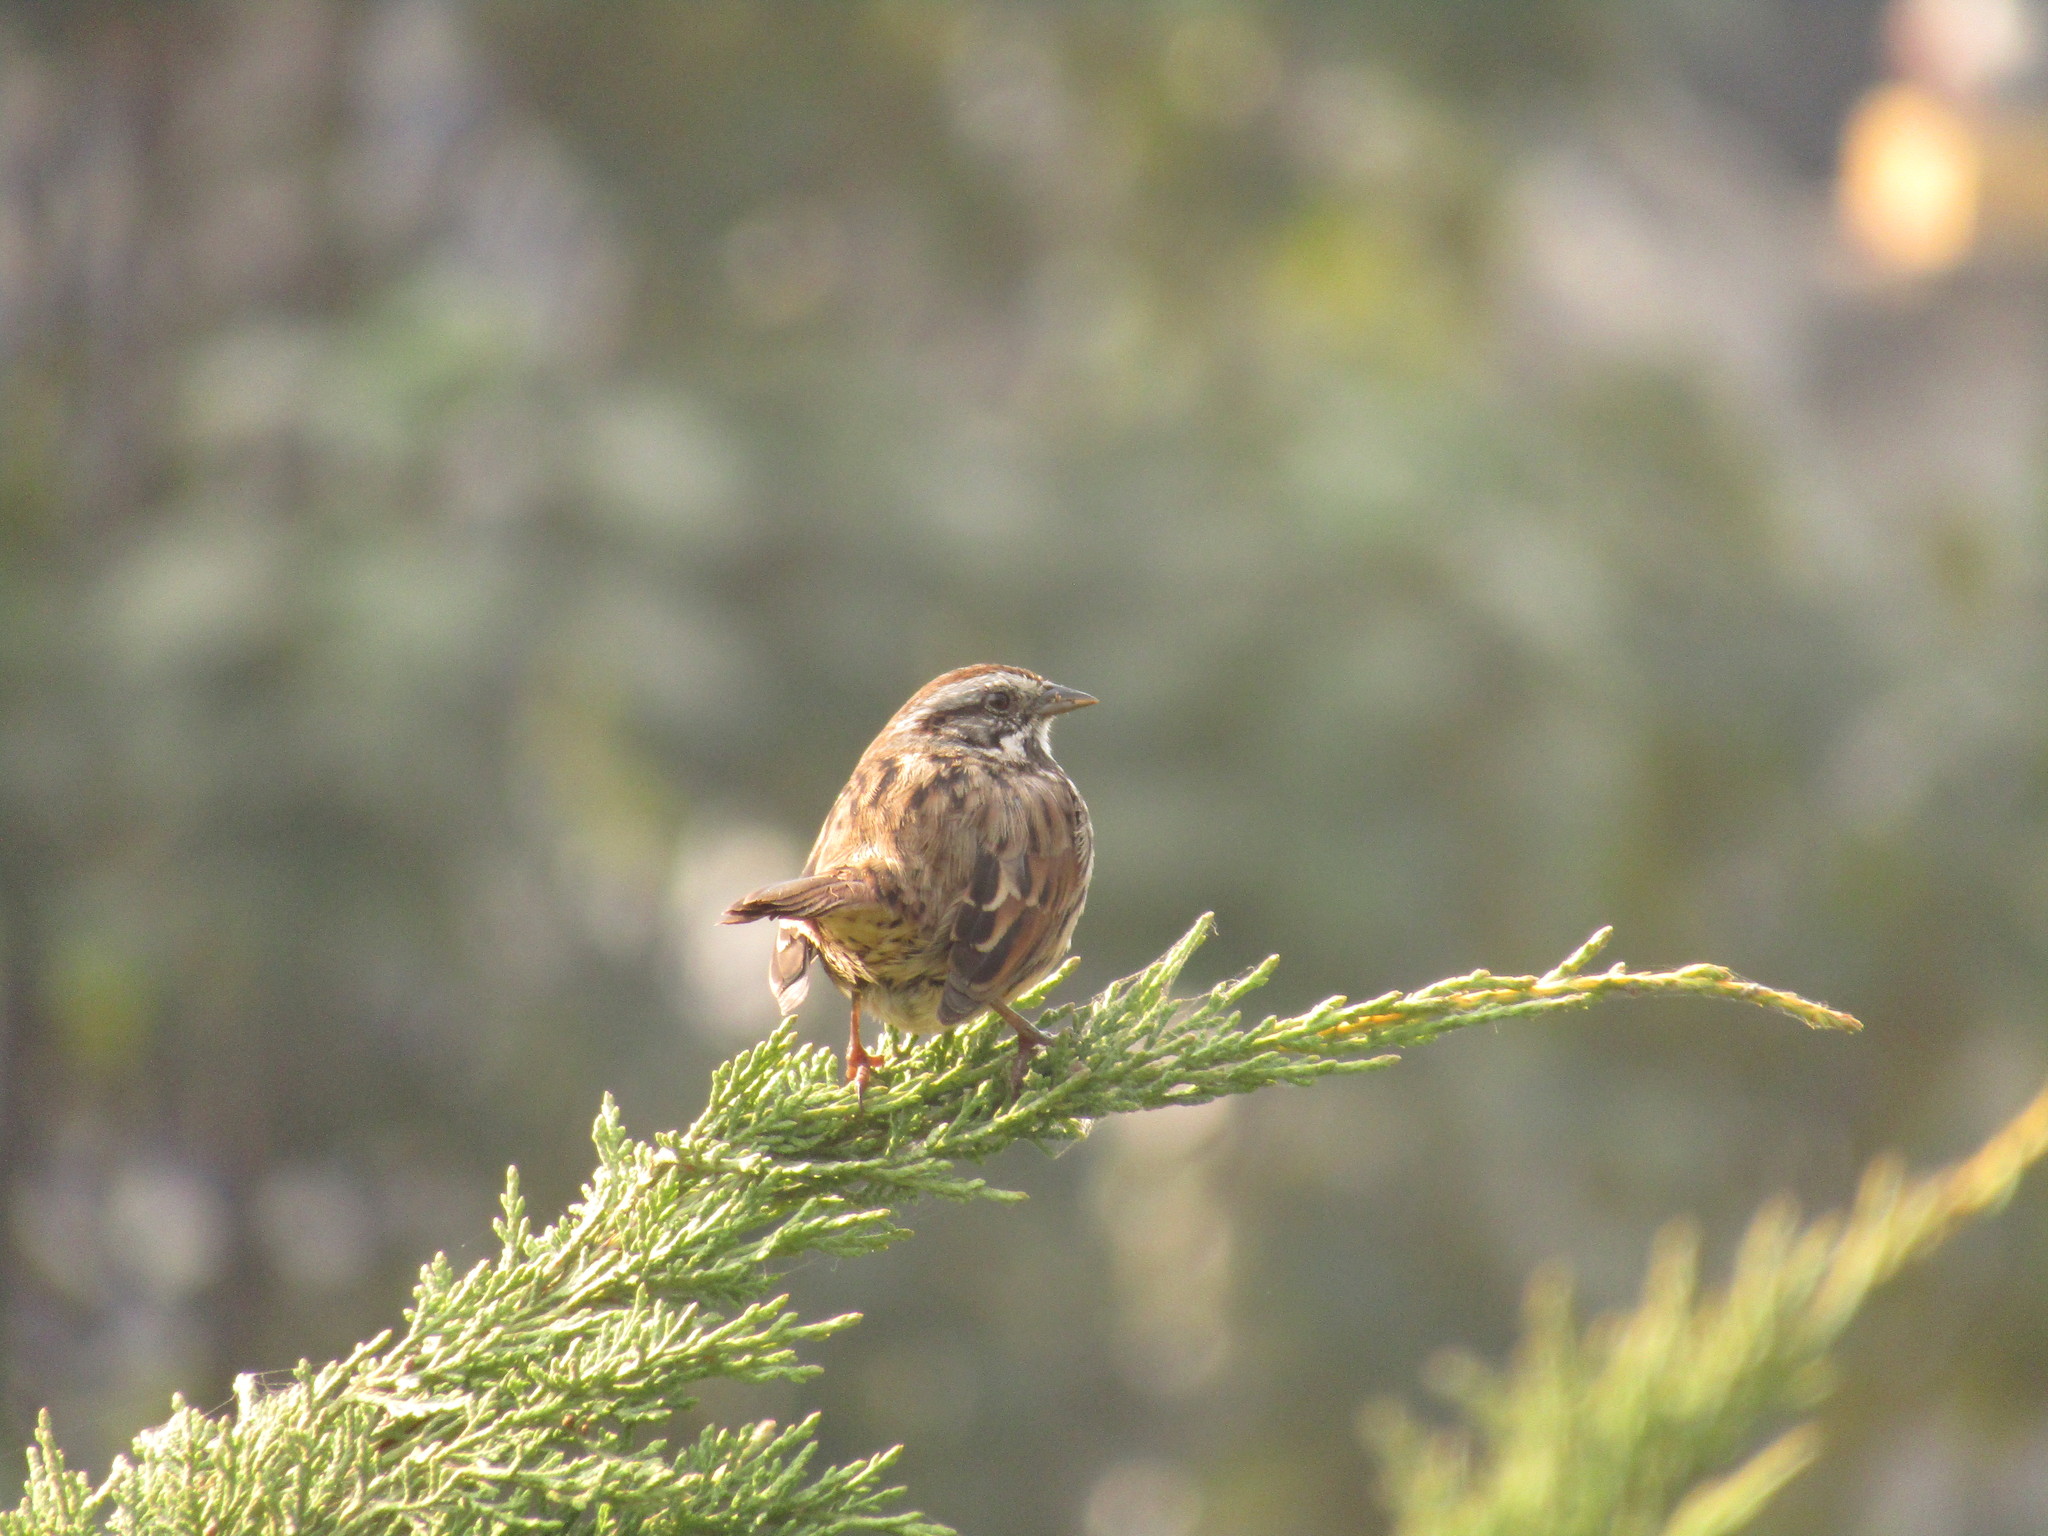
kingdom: Animalia
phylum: Chordata
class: Aves
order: Passeriformes
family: Passerellidae
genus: Melospiza
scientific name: Melospiza melodia
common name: Song sparrow
